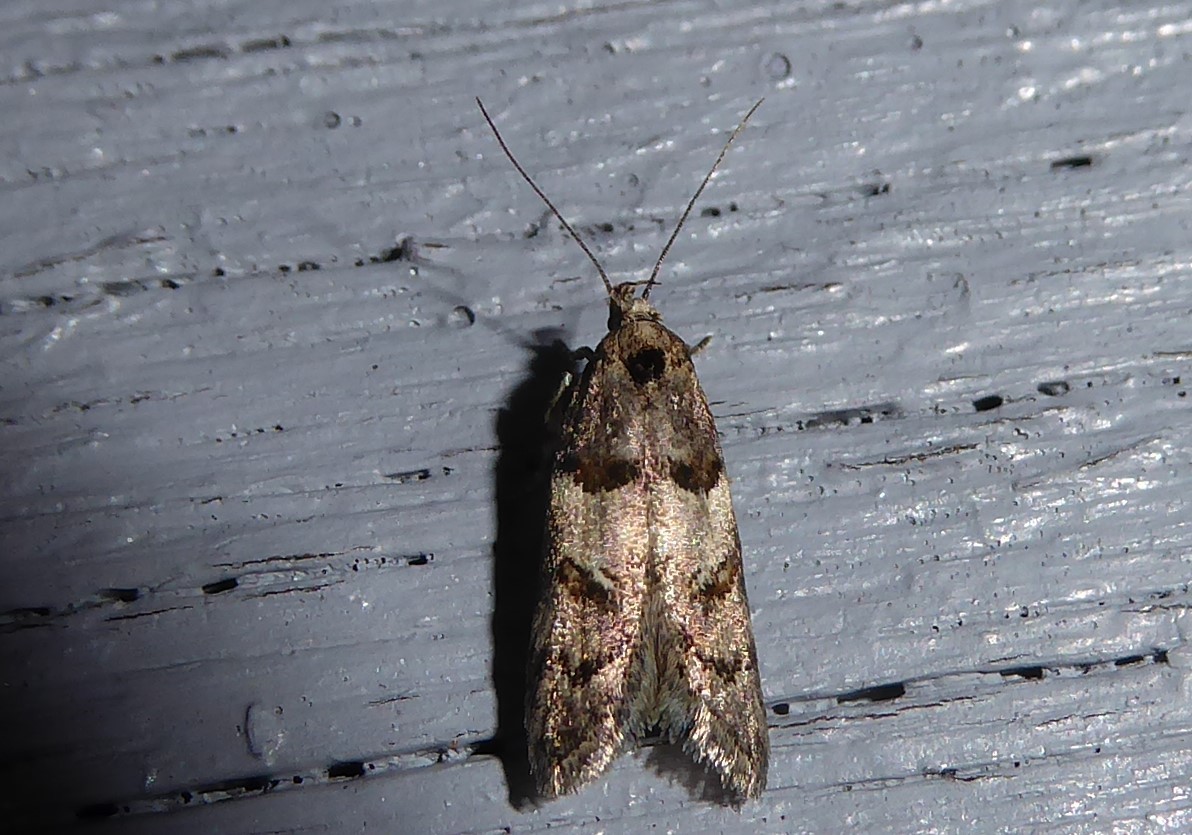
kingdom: Animalia
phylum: Arthropoda
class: Insecta
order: Lepidoptera
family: Oecophoridae
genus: Trachypepla
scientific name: Trachypepla contritella
